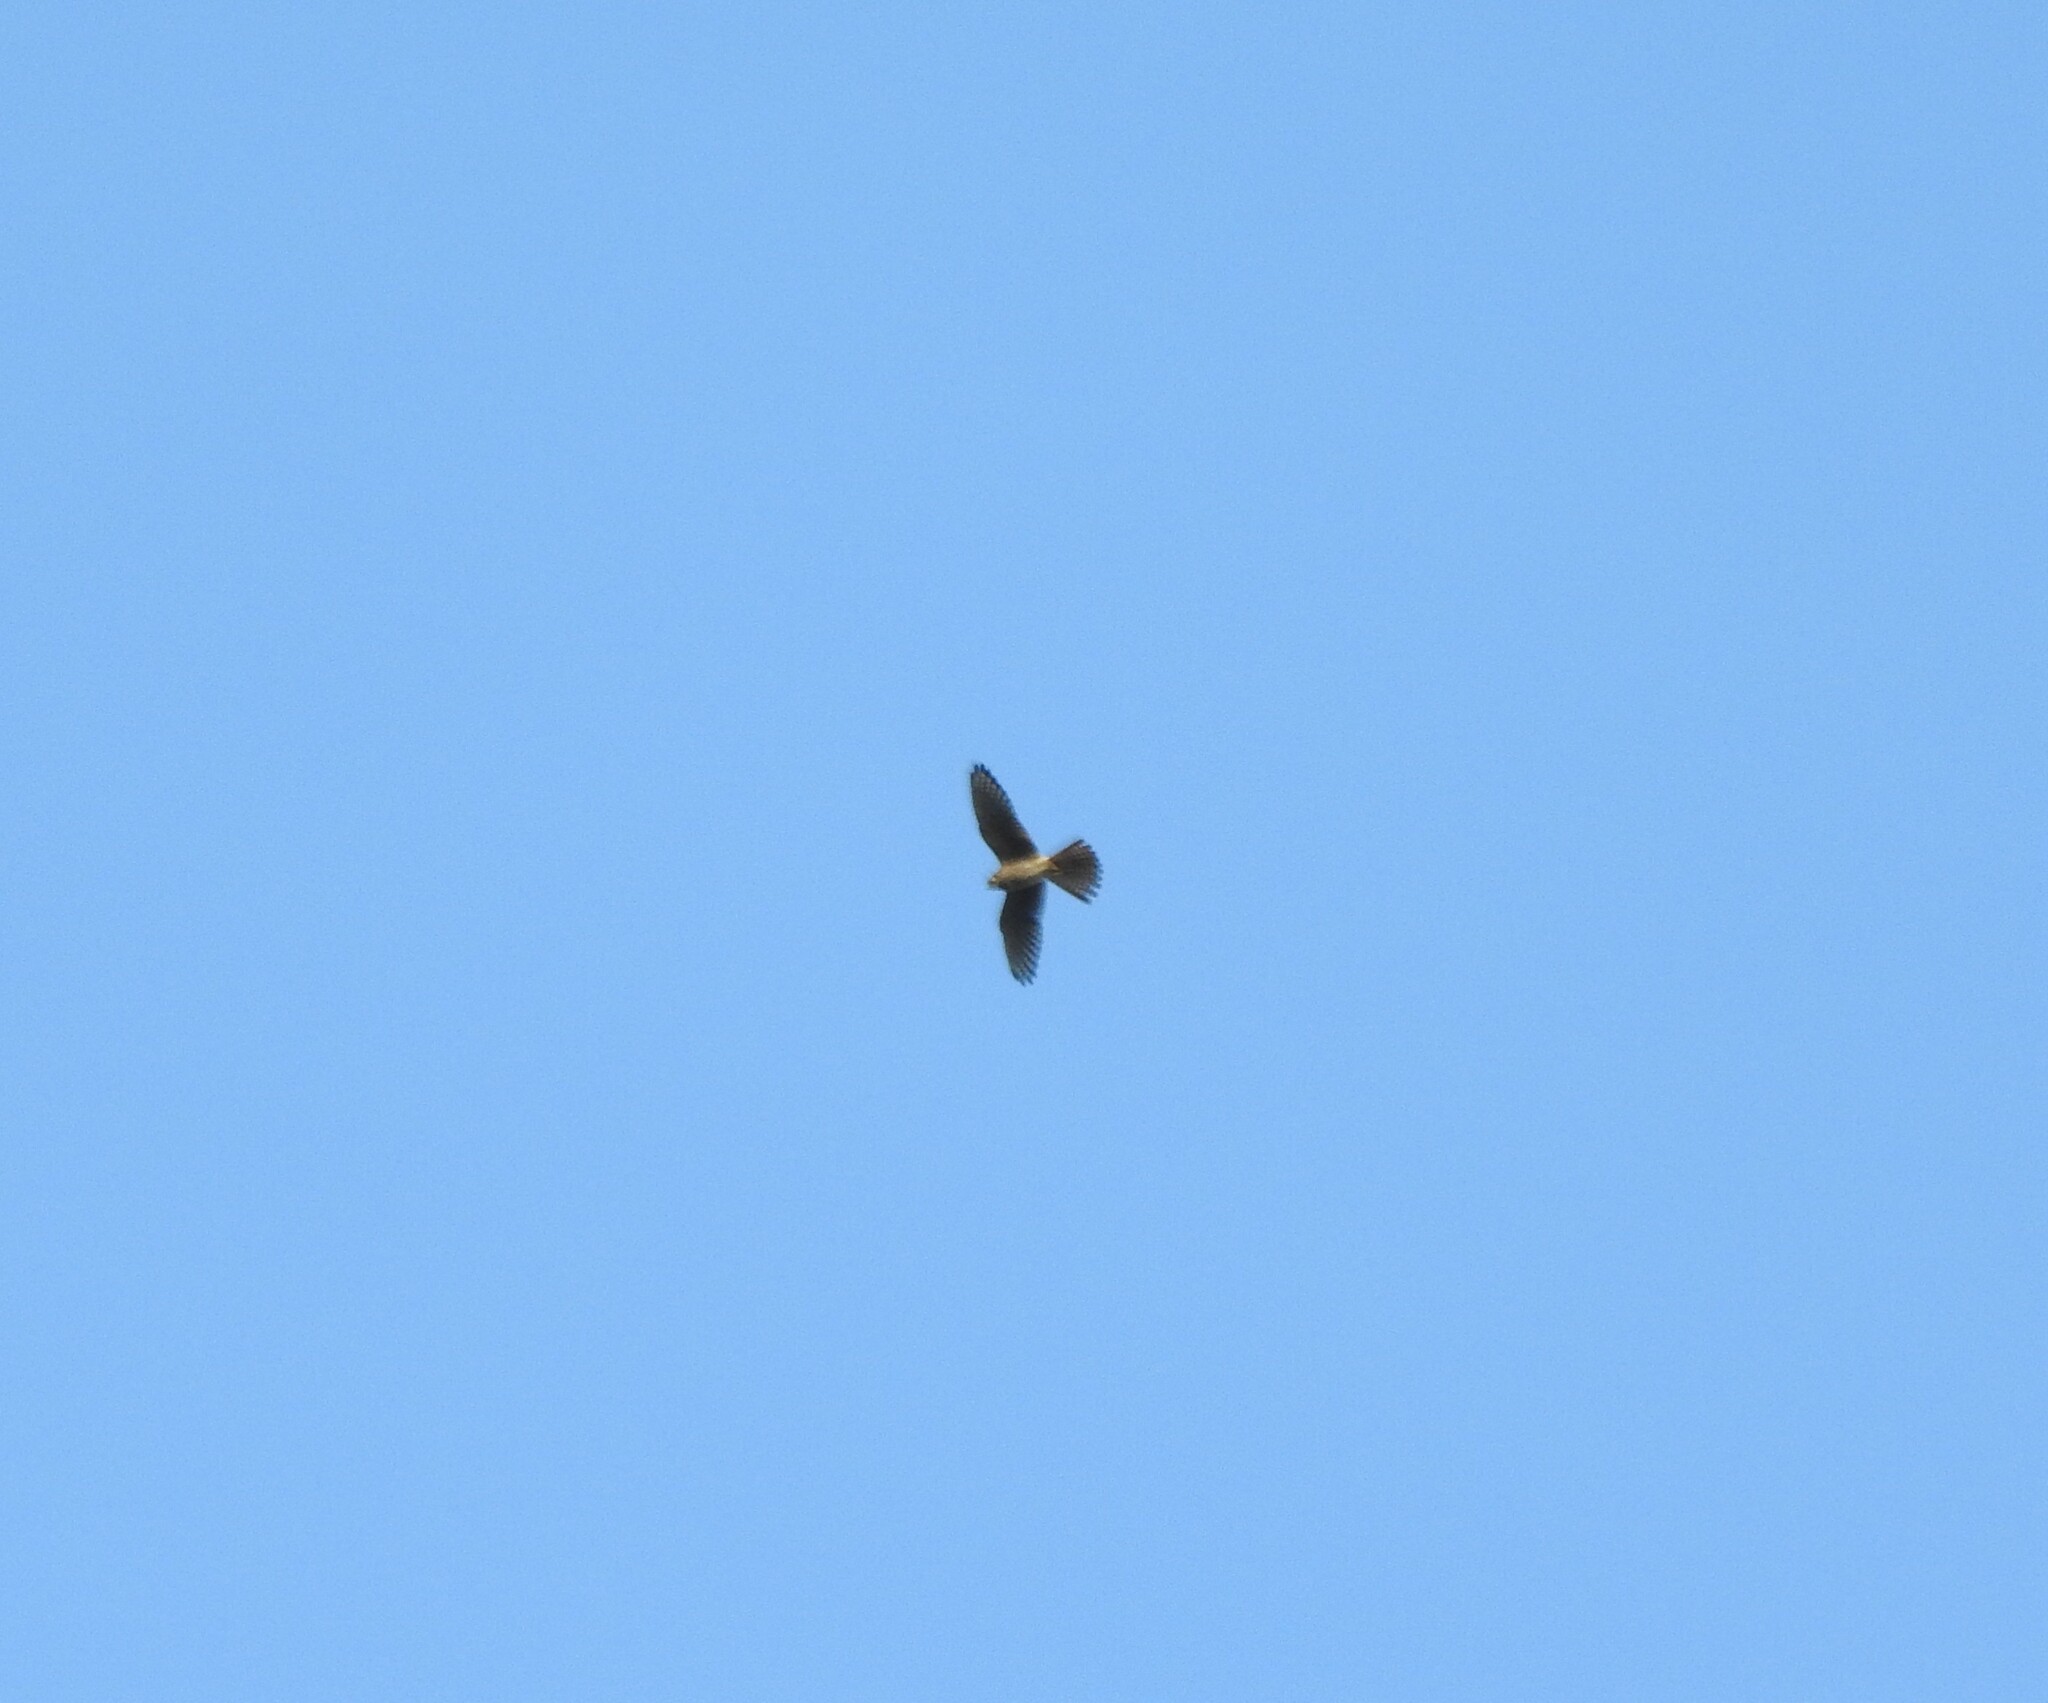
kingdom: Animalia
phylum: Chordata
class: Aves
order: Falconiformes
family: Falconidae
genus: Falco
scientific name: Falco sparverius
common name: American kestrel
